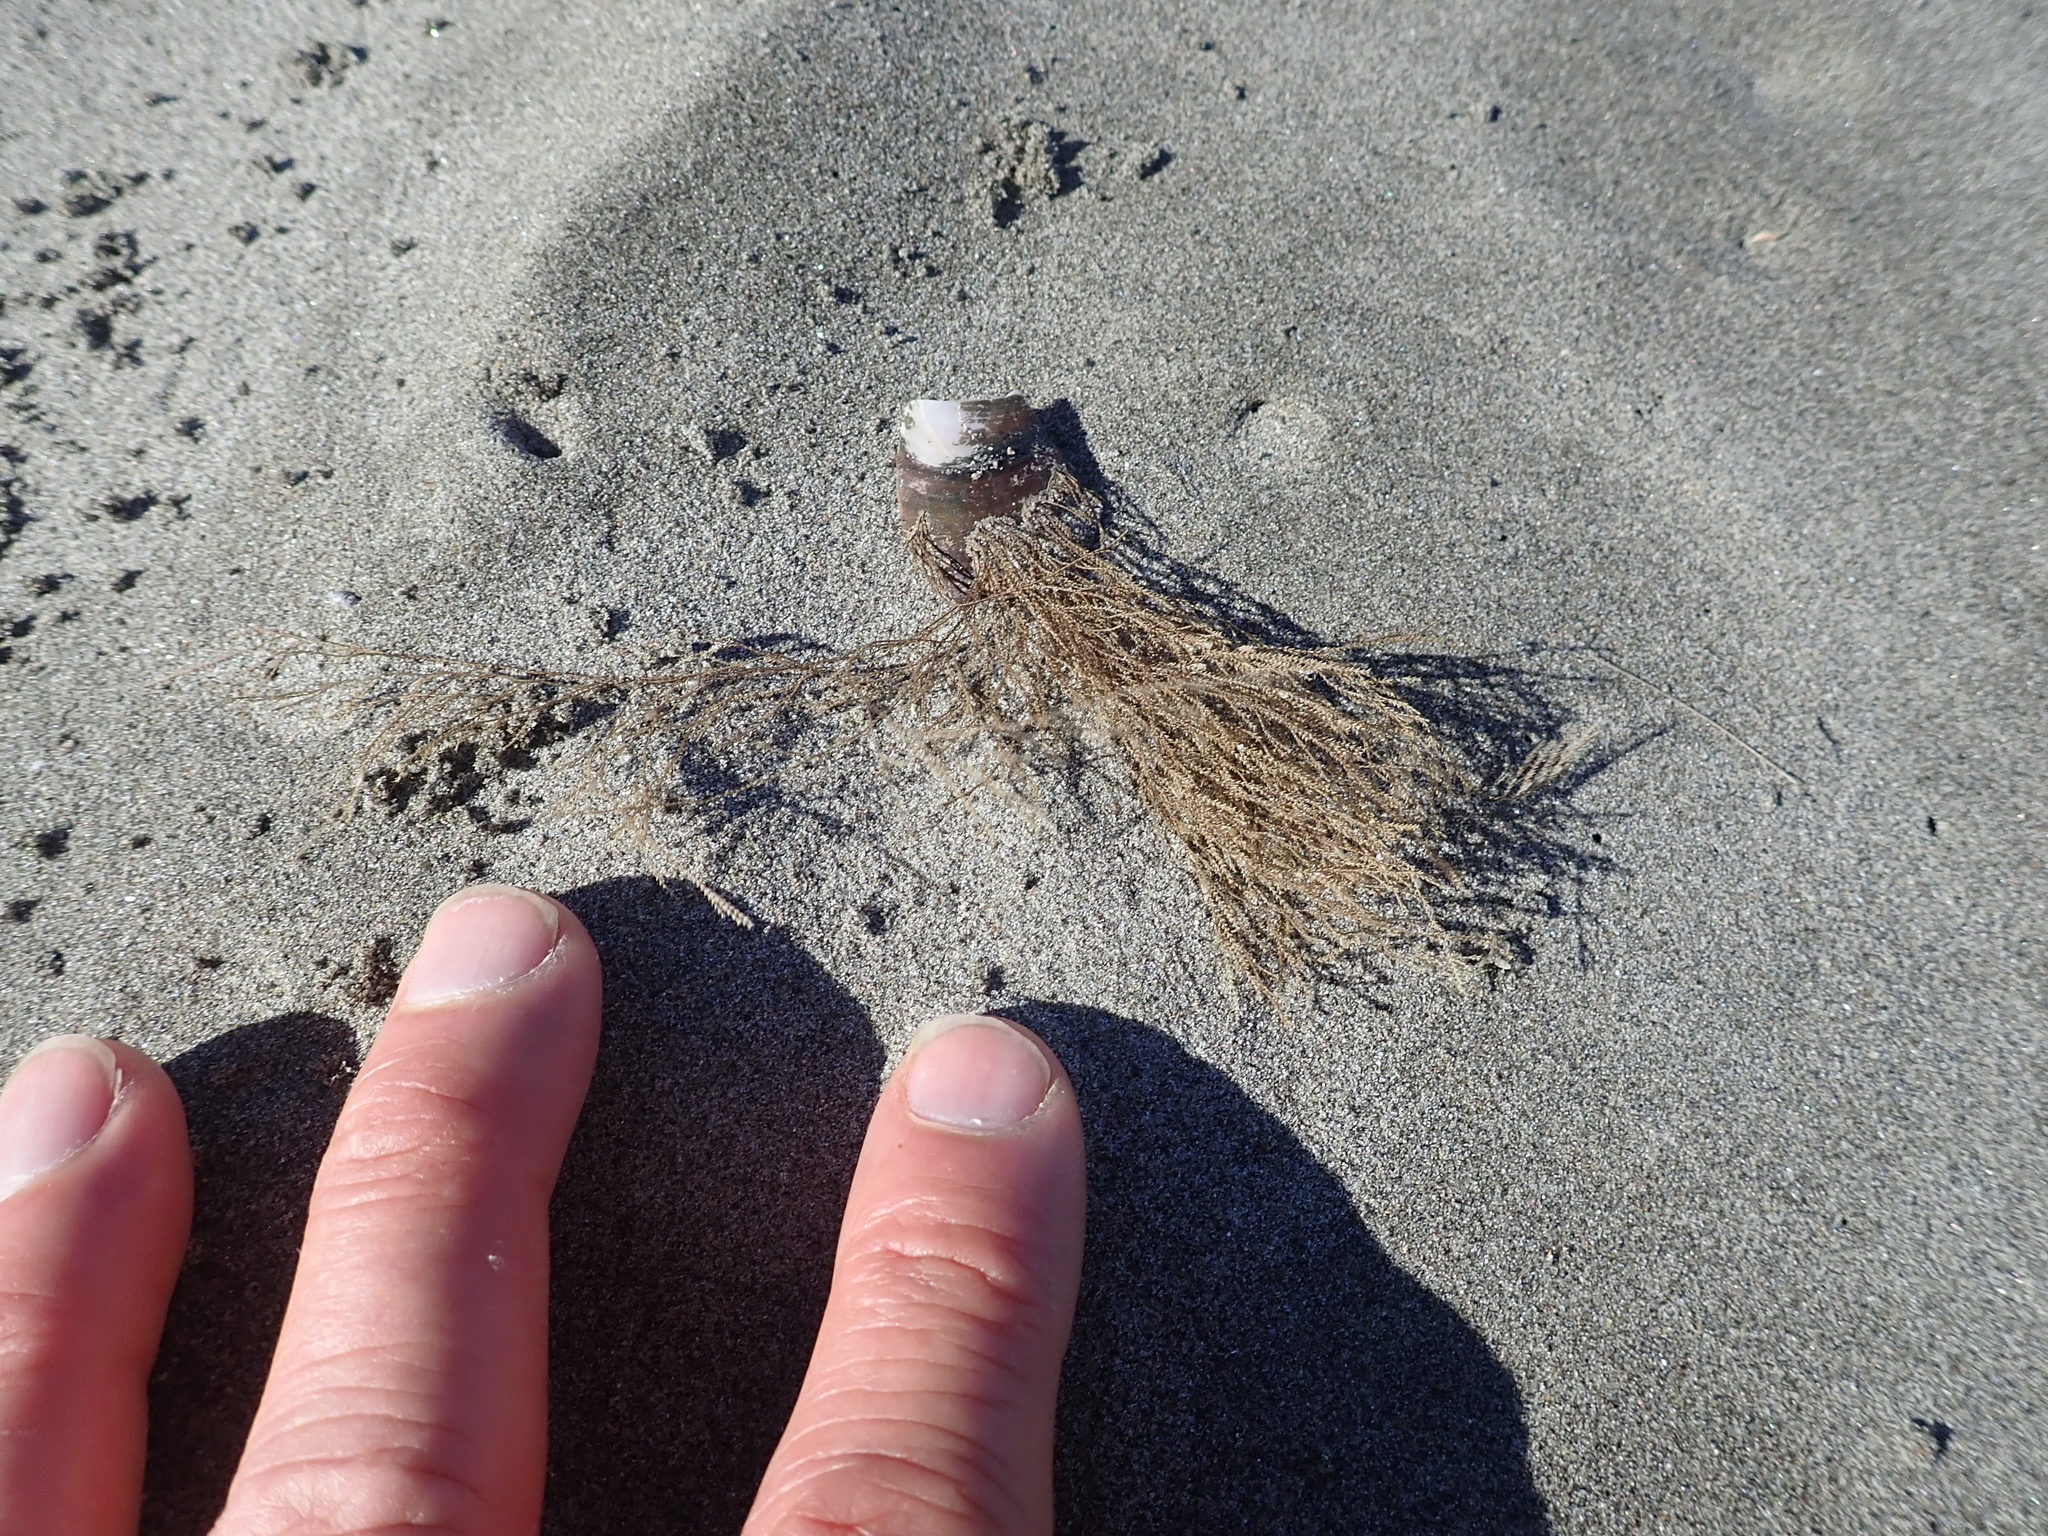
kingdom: Animalia
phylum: Cnidaria
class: Hydrozoa
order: Leptothecata
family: Sertulariidae
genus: Amphisbetia
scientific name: Amphisbetia bispinosa
